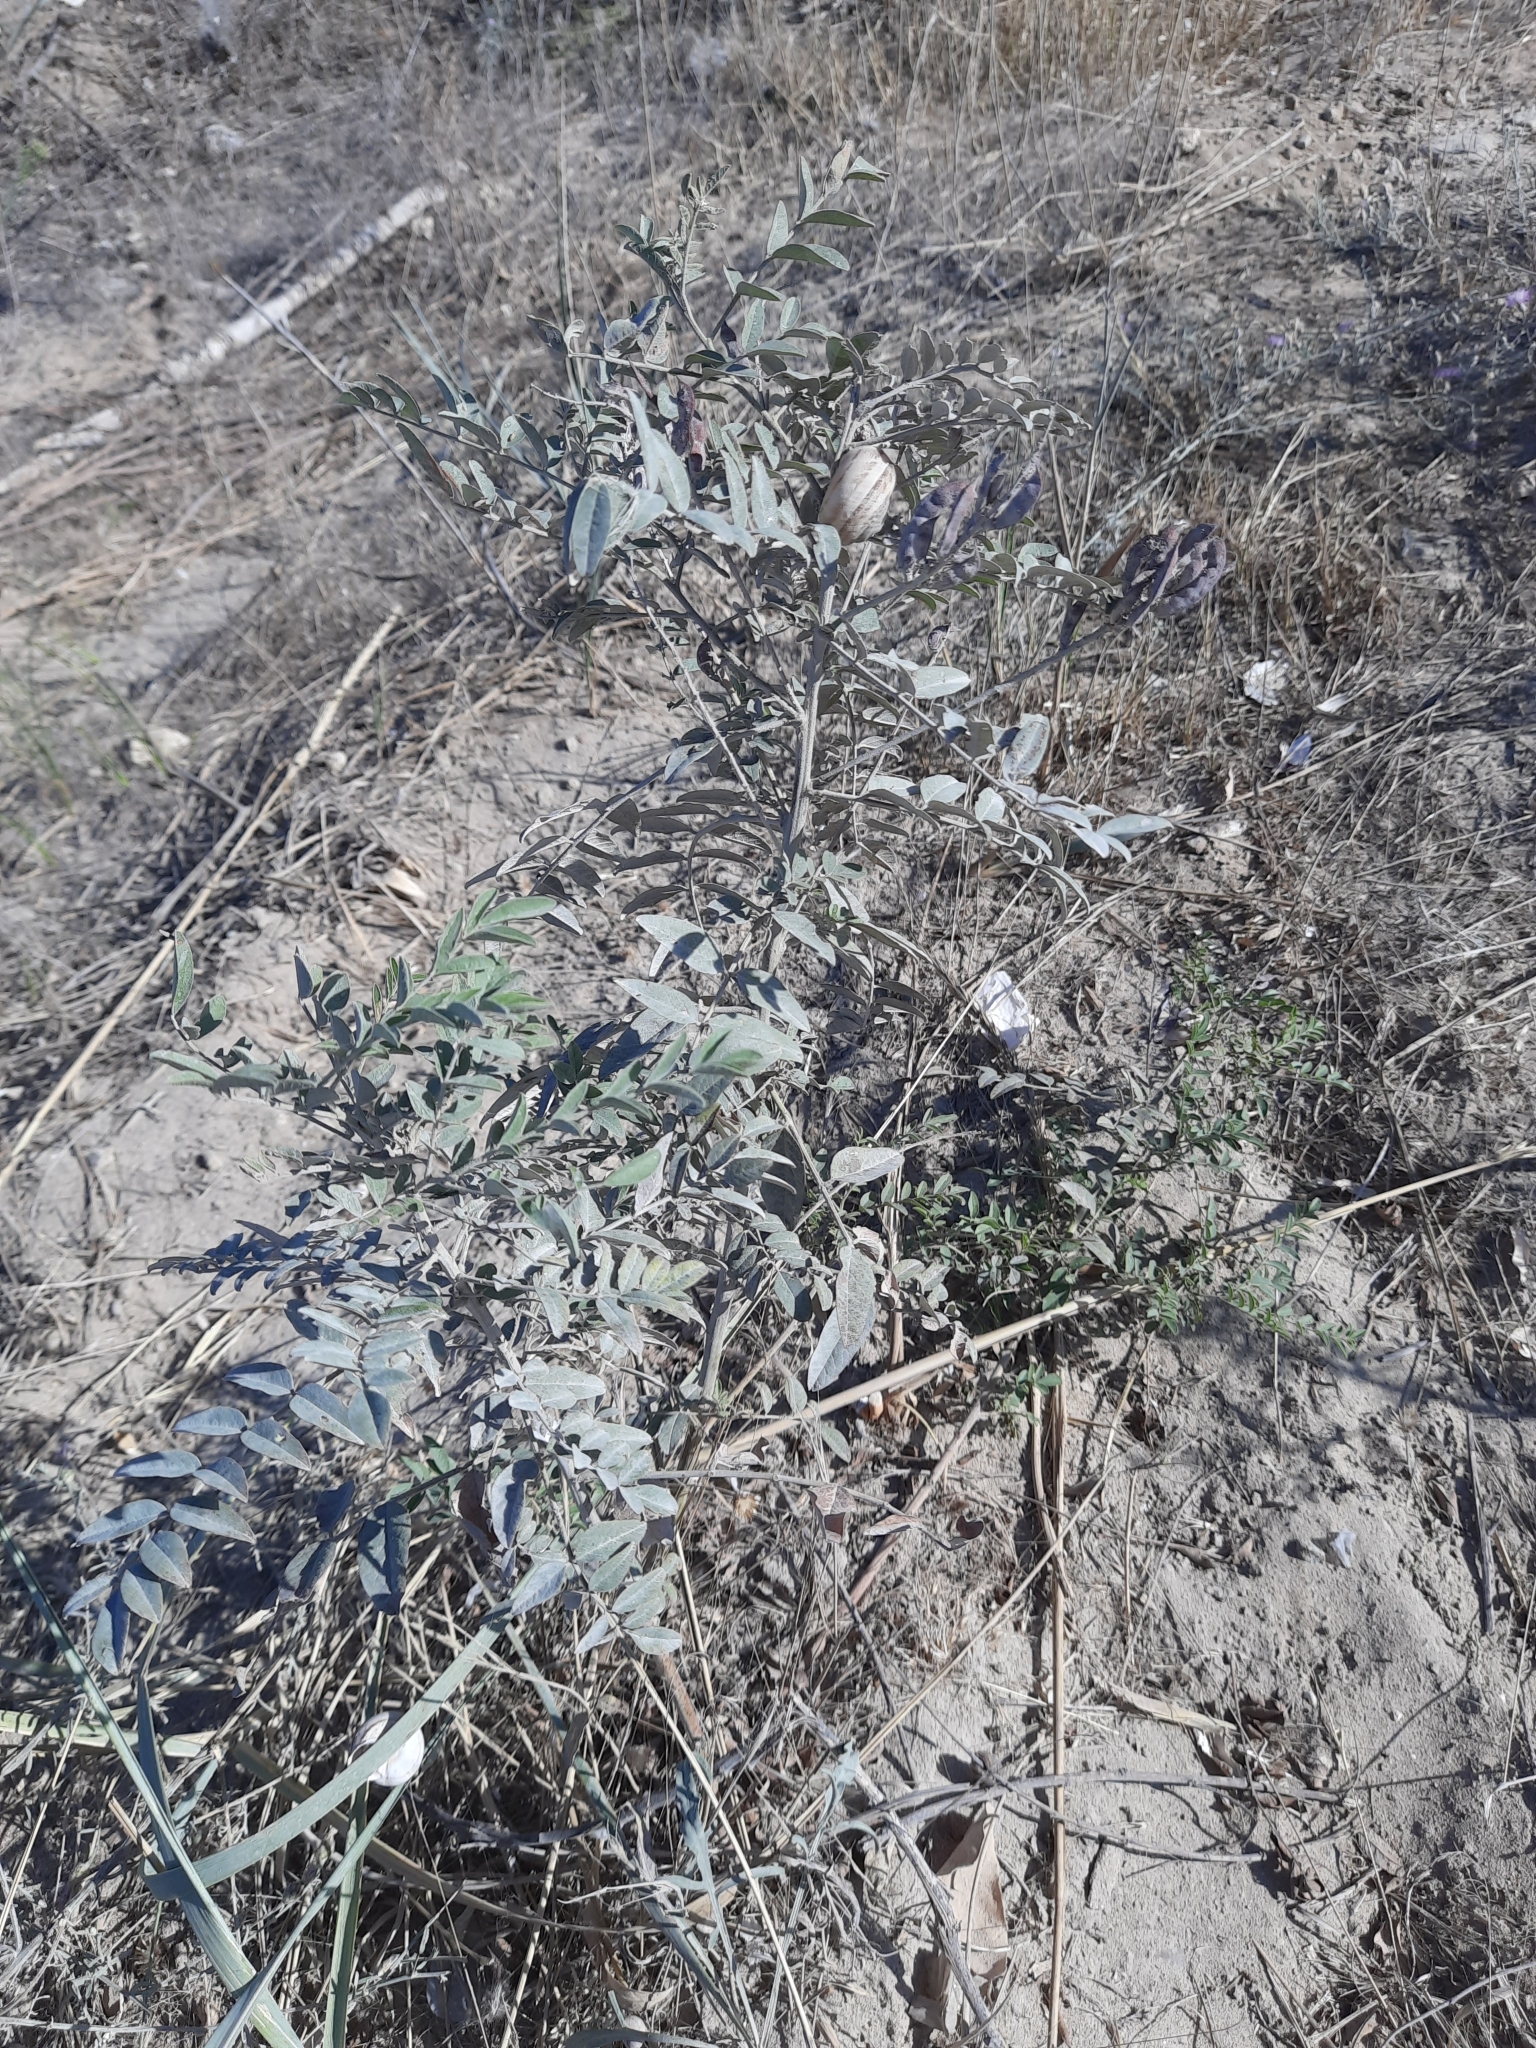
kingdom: Plantae
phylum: Tracheophyta
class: Magnoliopsida
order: Fabales
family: Fabaceae
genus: Glycyrrhiza
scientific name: Glycyrrhiza glabra
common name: Liquorice
